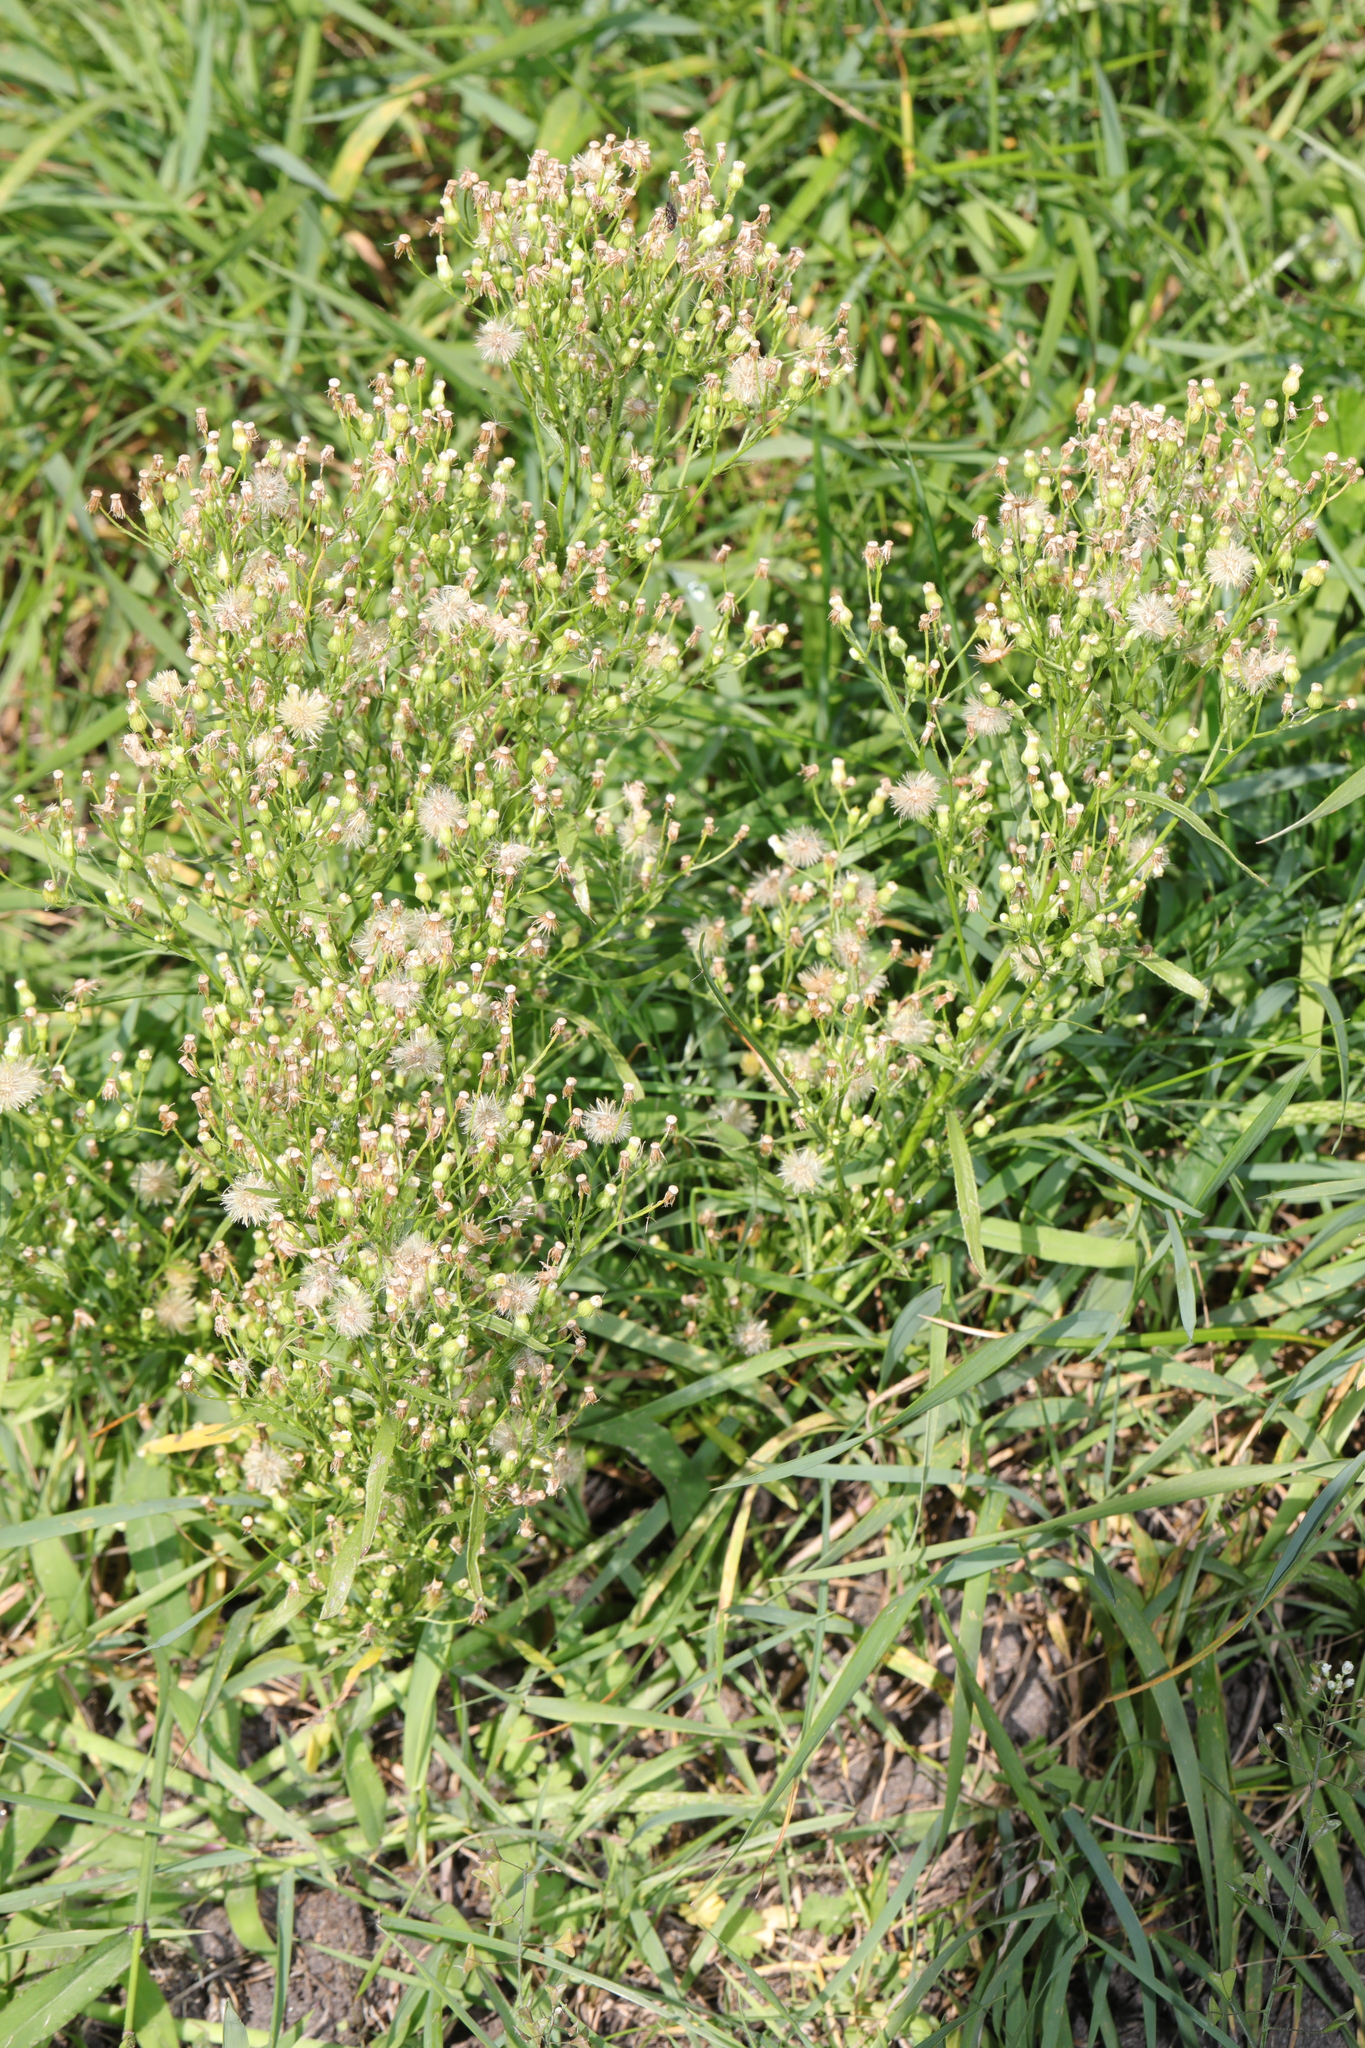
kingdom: Plantae
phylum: Tracheophyta
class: Magnoliopsida
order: Asterales
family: Asteraceae
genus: Erigeron
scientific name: Erigeron canadensis
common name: Canadian fleabane
